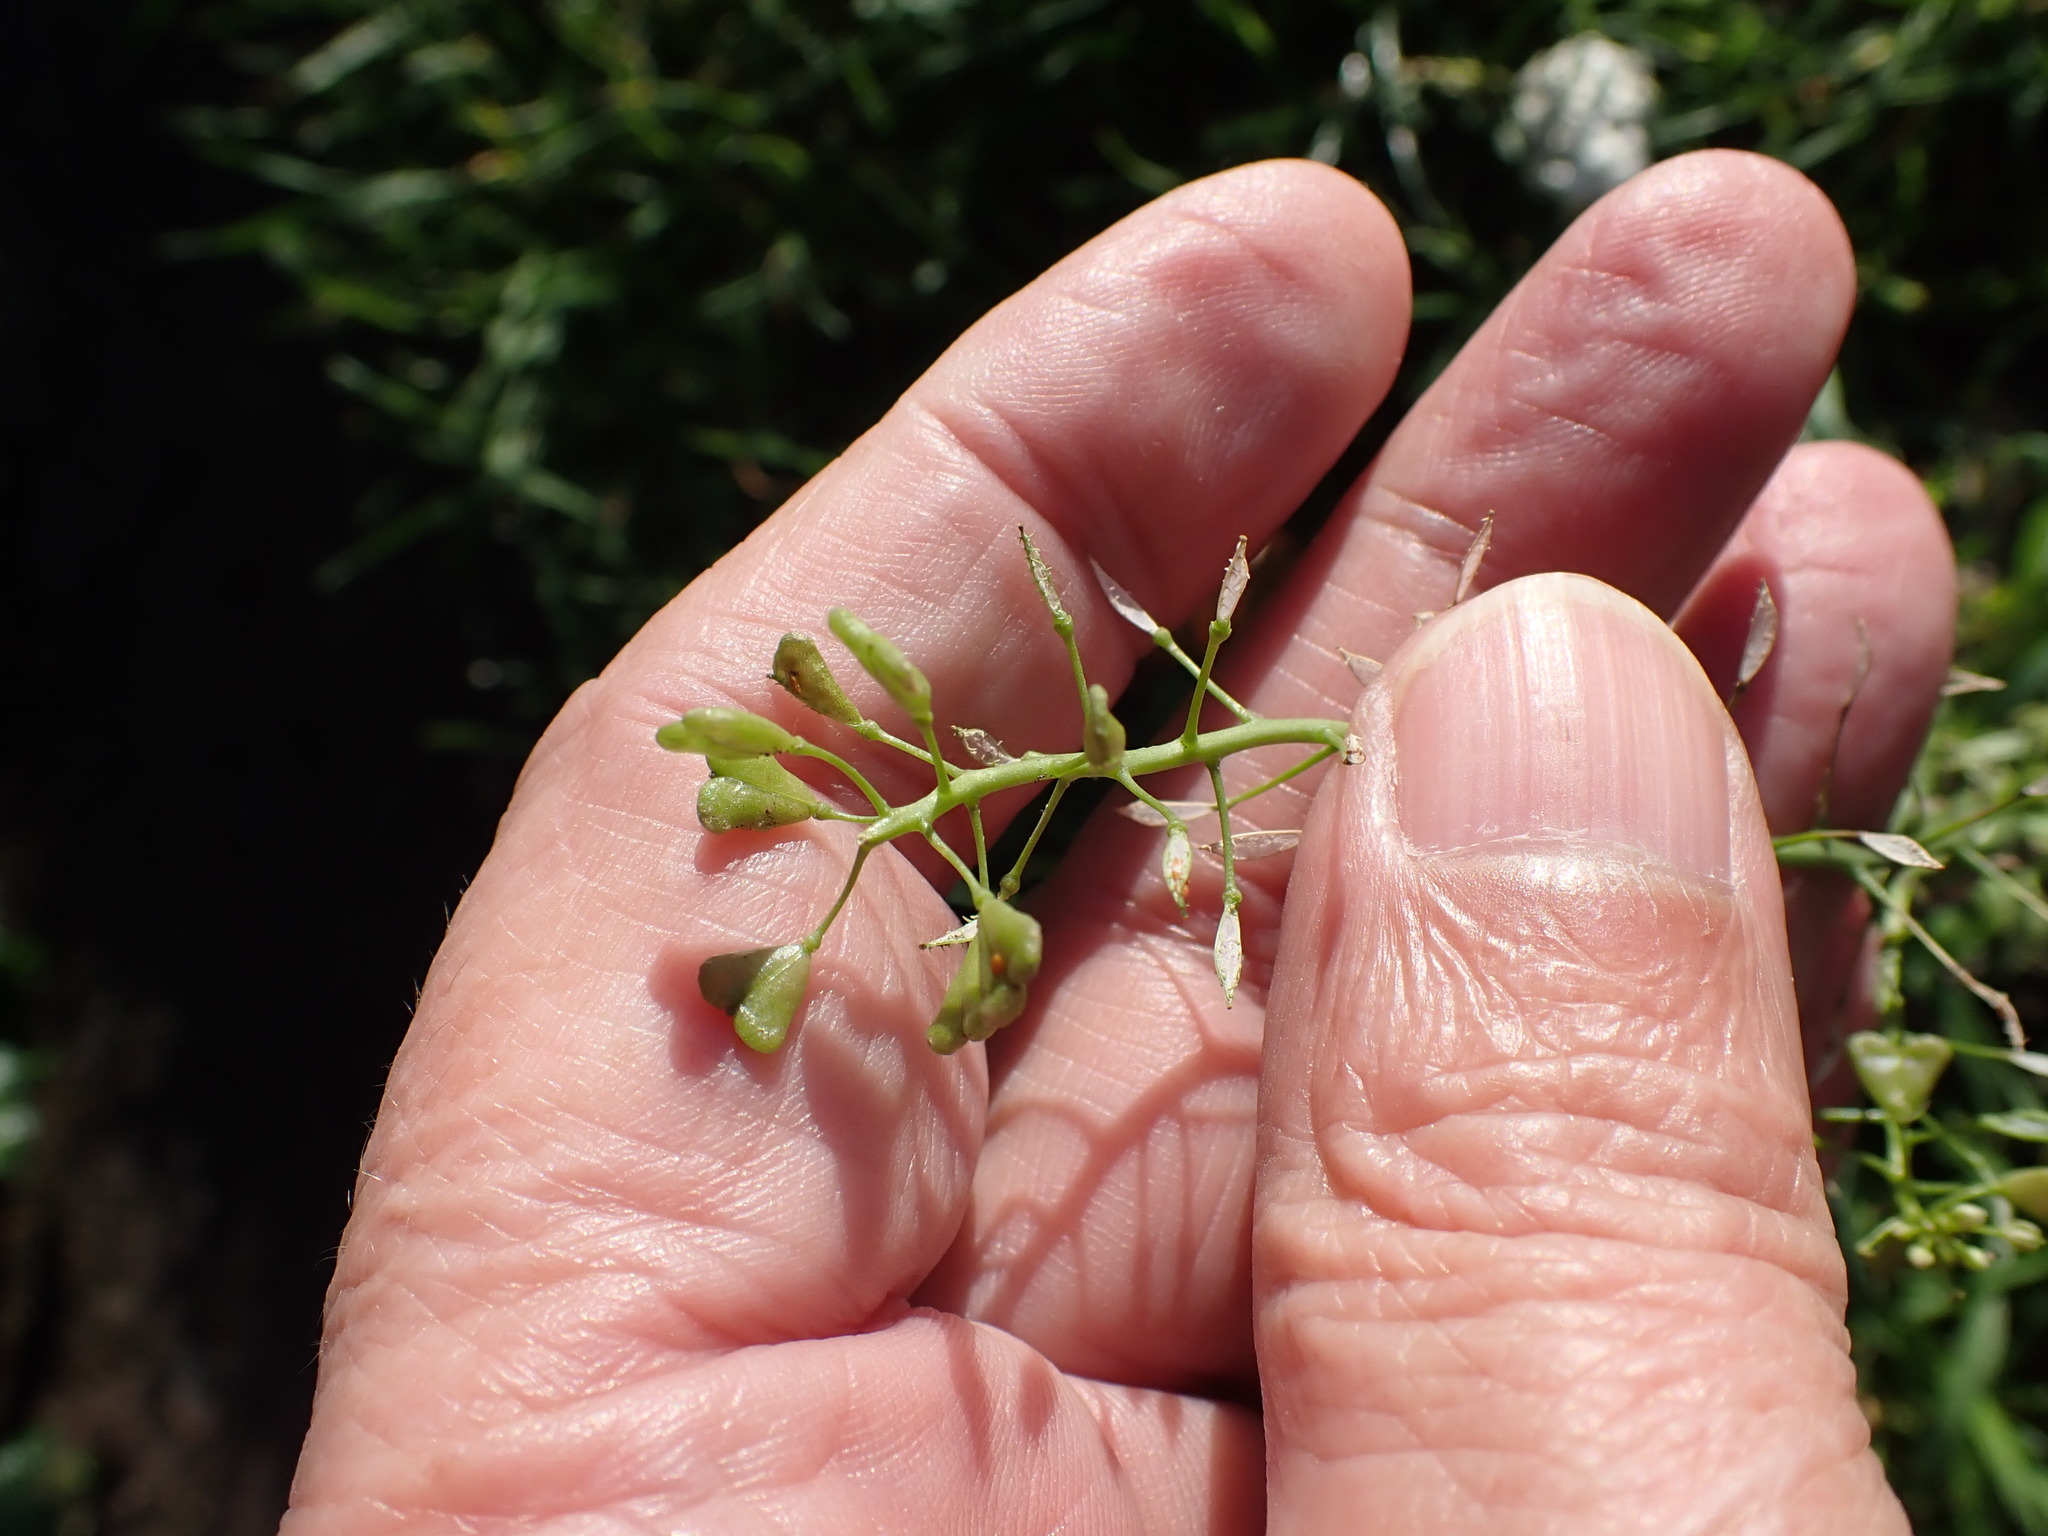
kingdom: Plantae
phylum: Tracheophyta
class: Magnoliopsida
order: Brassicales
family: Brassicaceae
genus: Capsella
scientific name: Capsella bursa-pastoris
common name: Shepherd's purse
